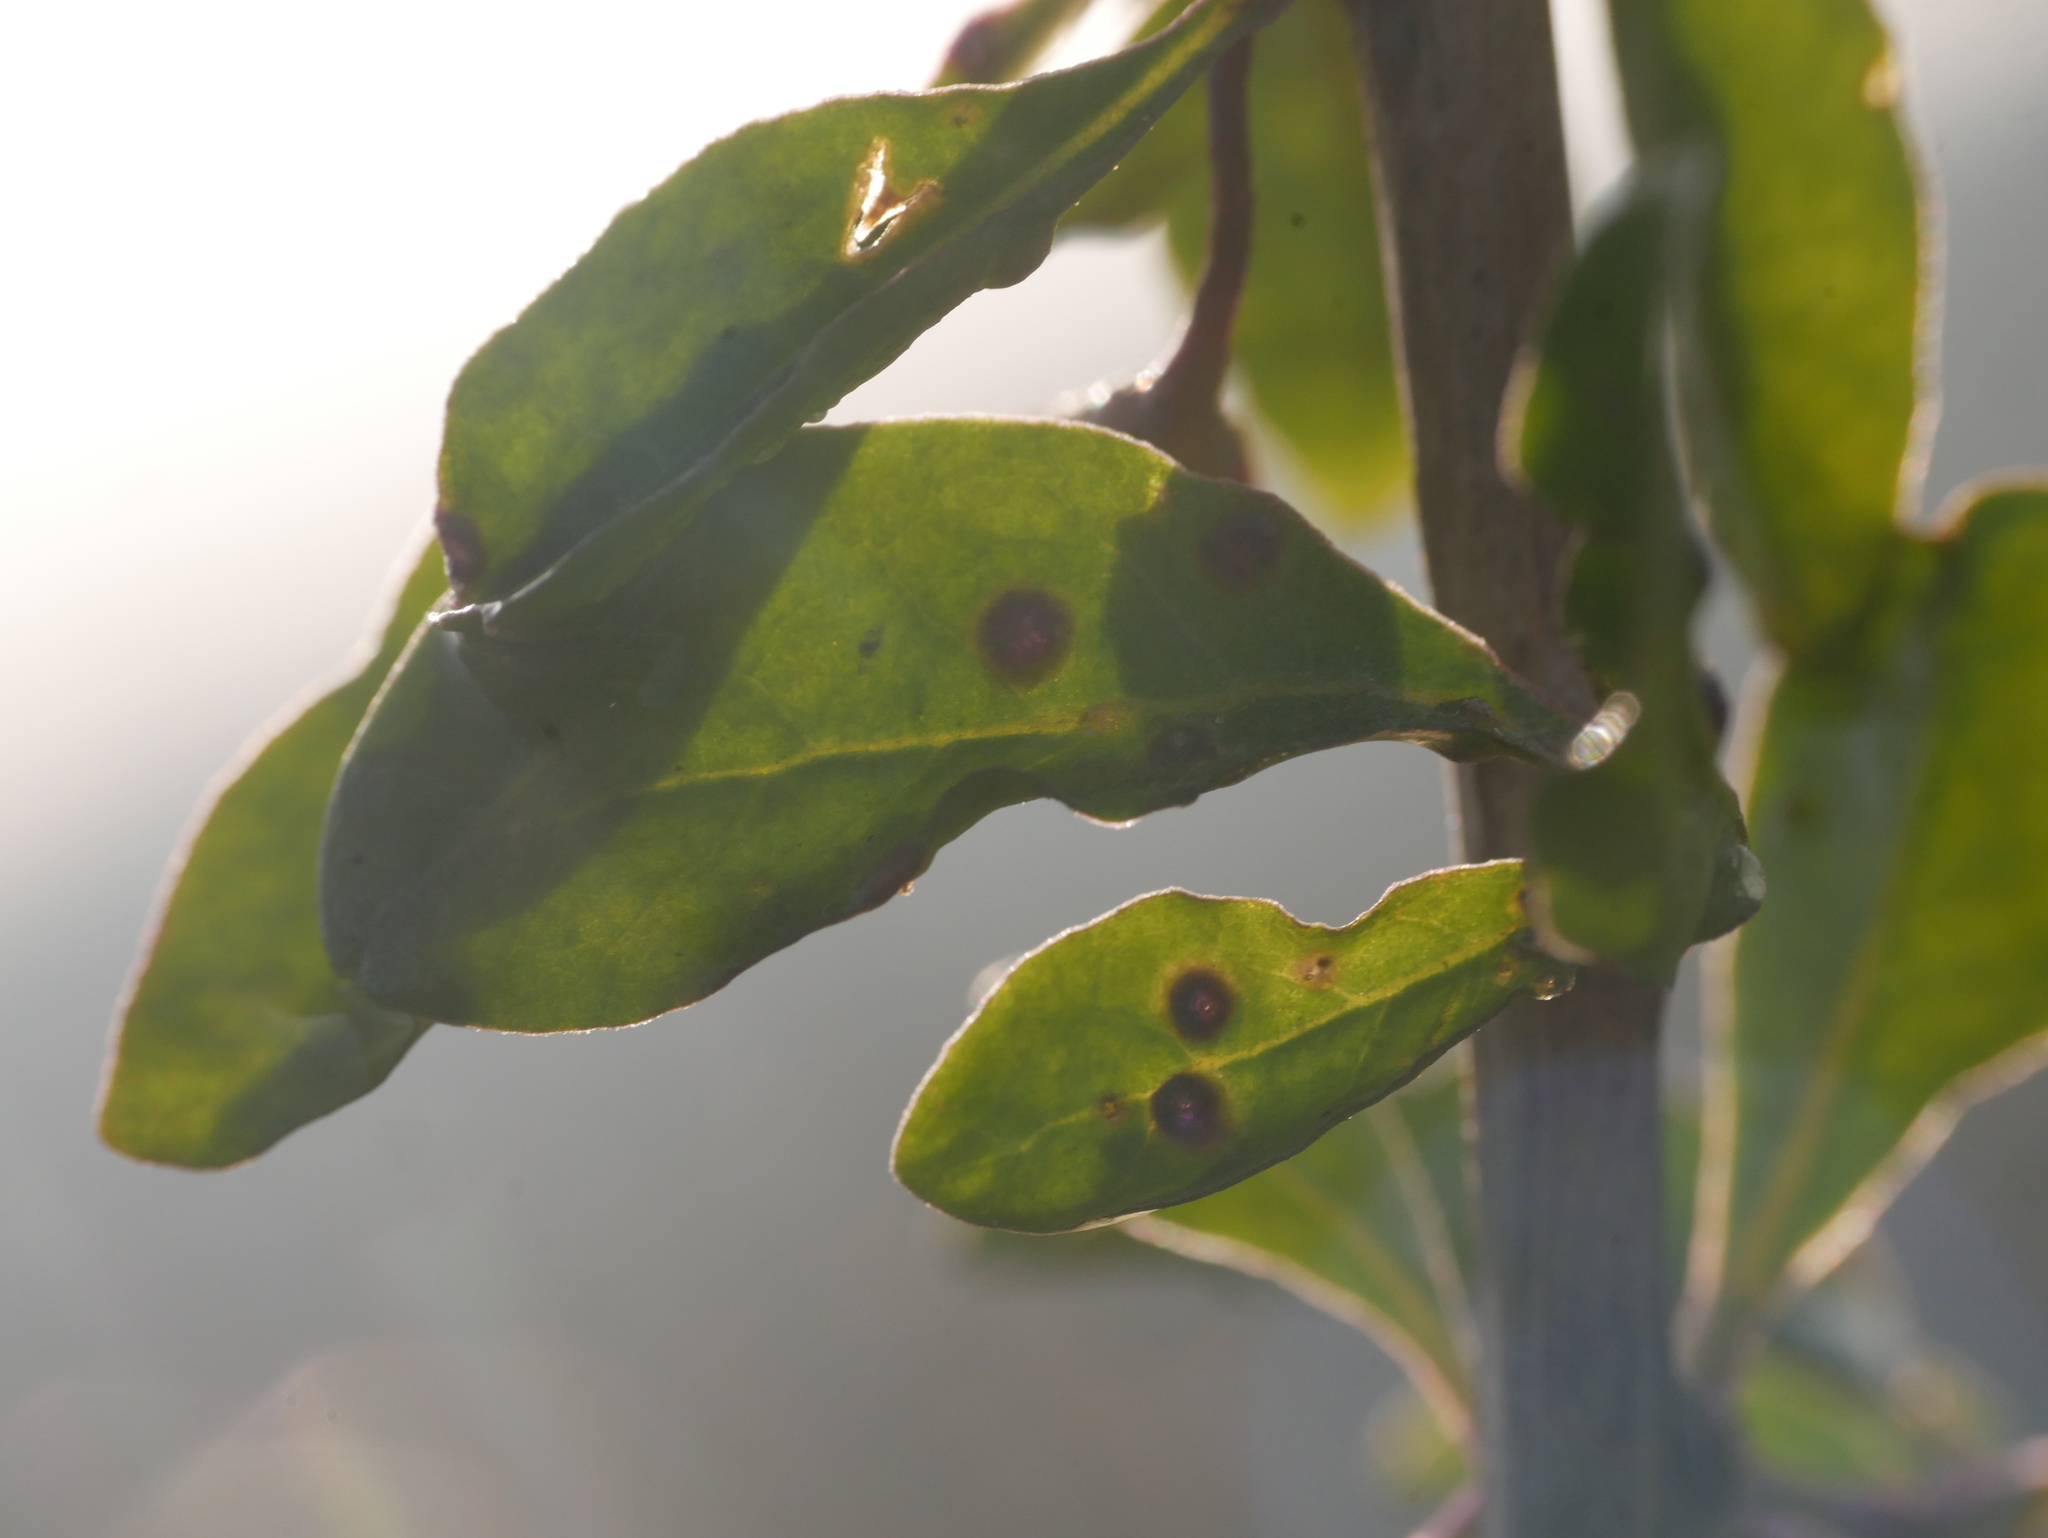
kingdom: Animalia
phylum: Arthropoda
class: Arachnida
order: Trombidiformes
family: Eriophyidae
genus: Aceria
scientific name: Aceria eucricotes
